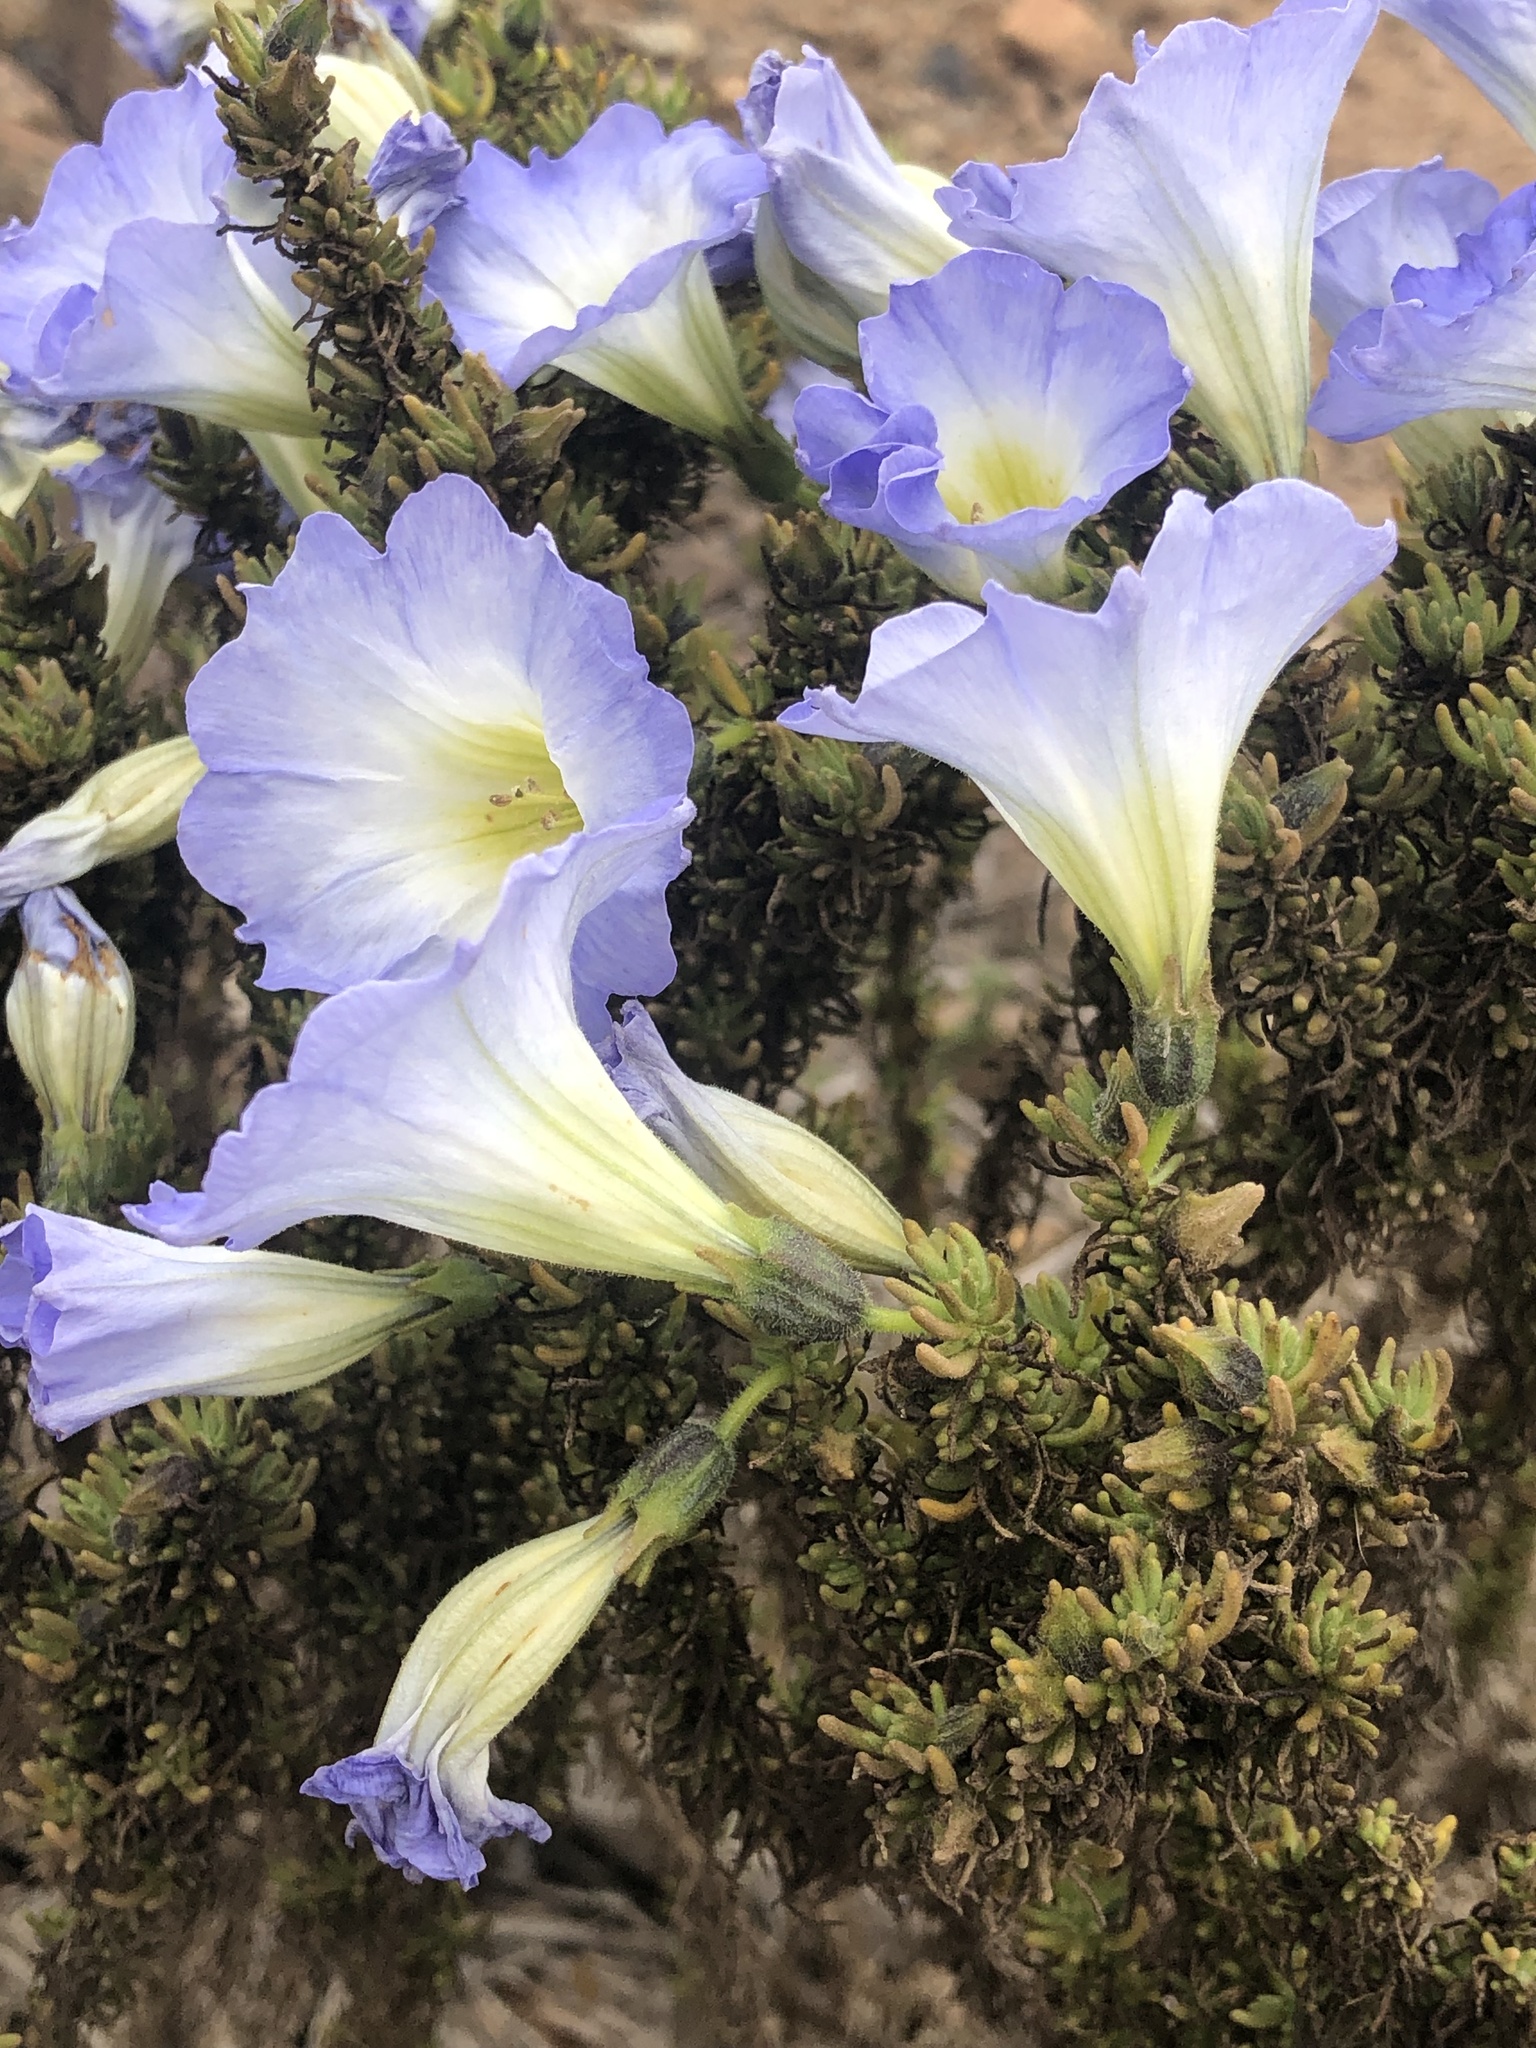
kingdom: Plantae
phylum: Tracheophyta
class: Magnoliopsida
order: Solanales
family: Solanaceae
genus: Nolana
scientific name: Nolana coelestis
